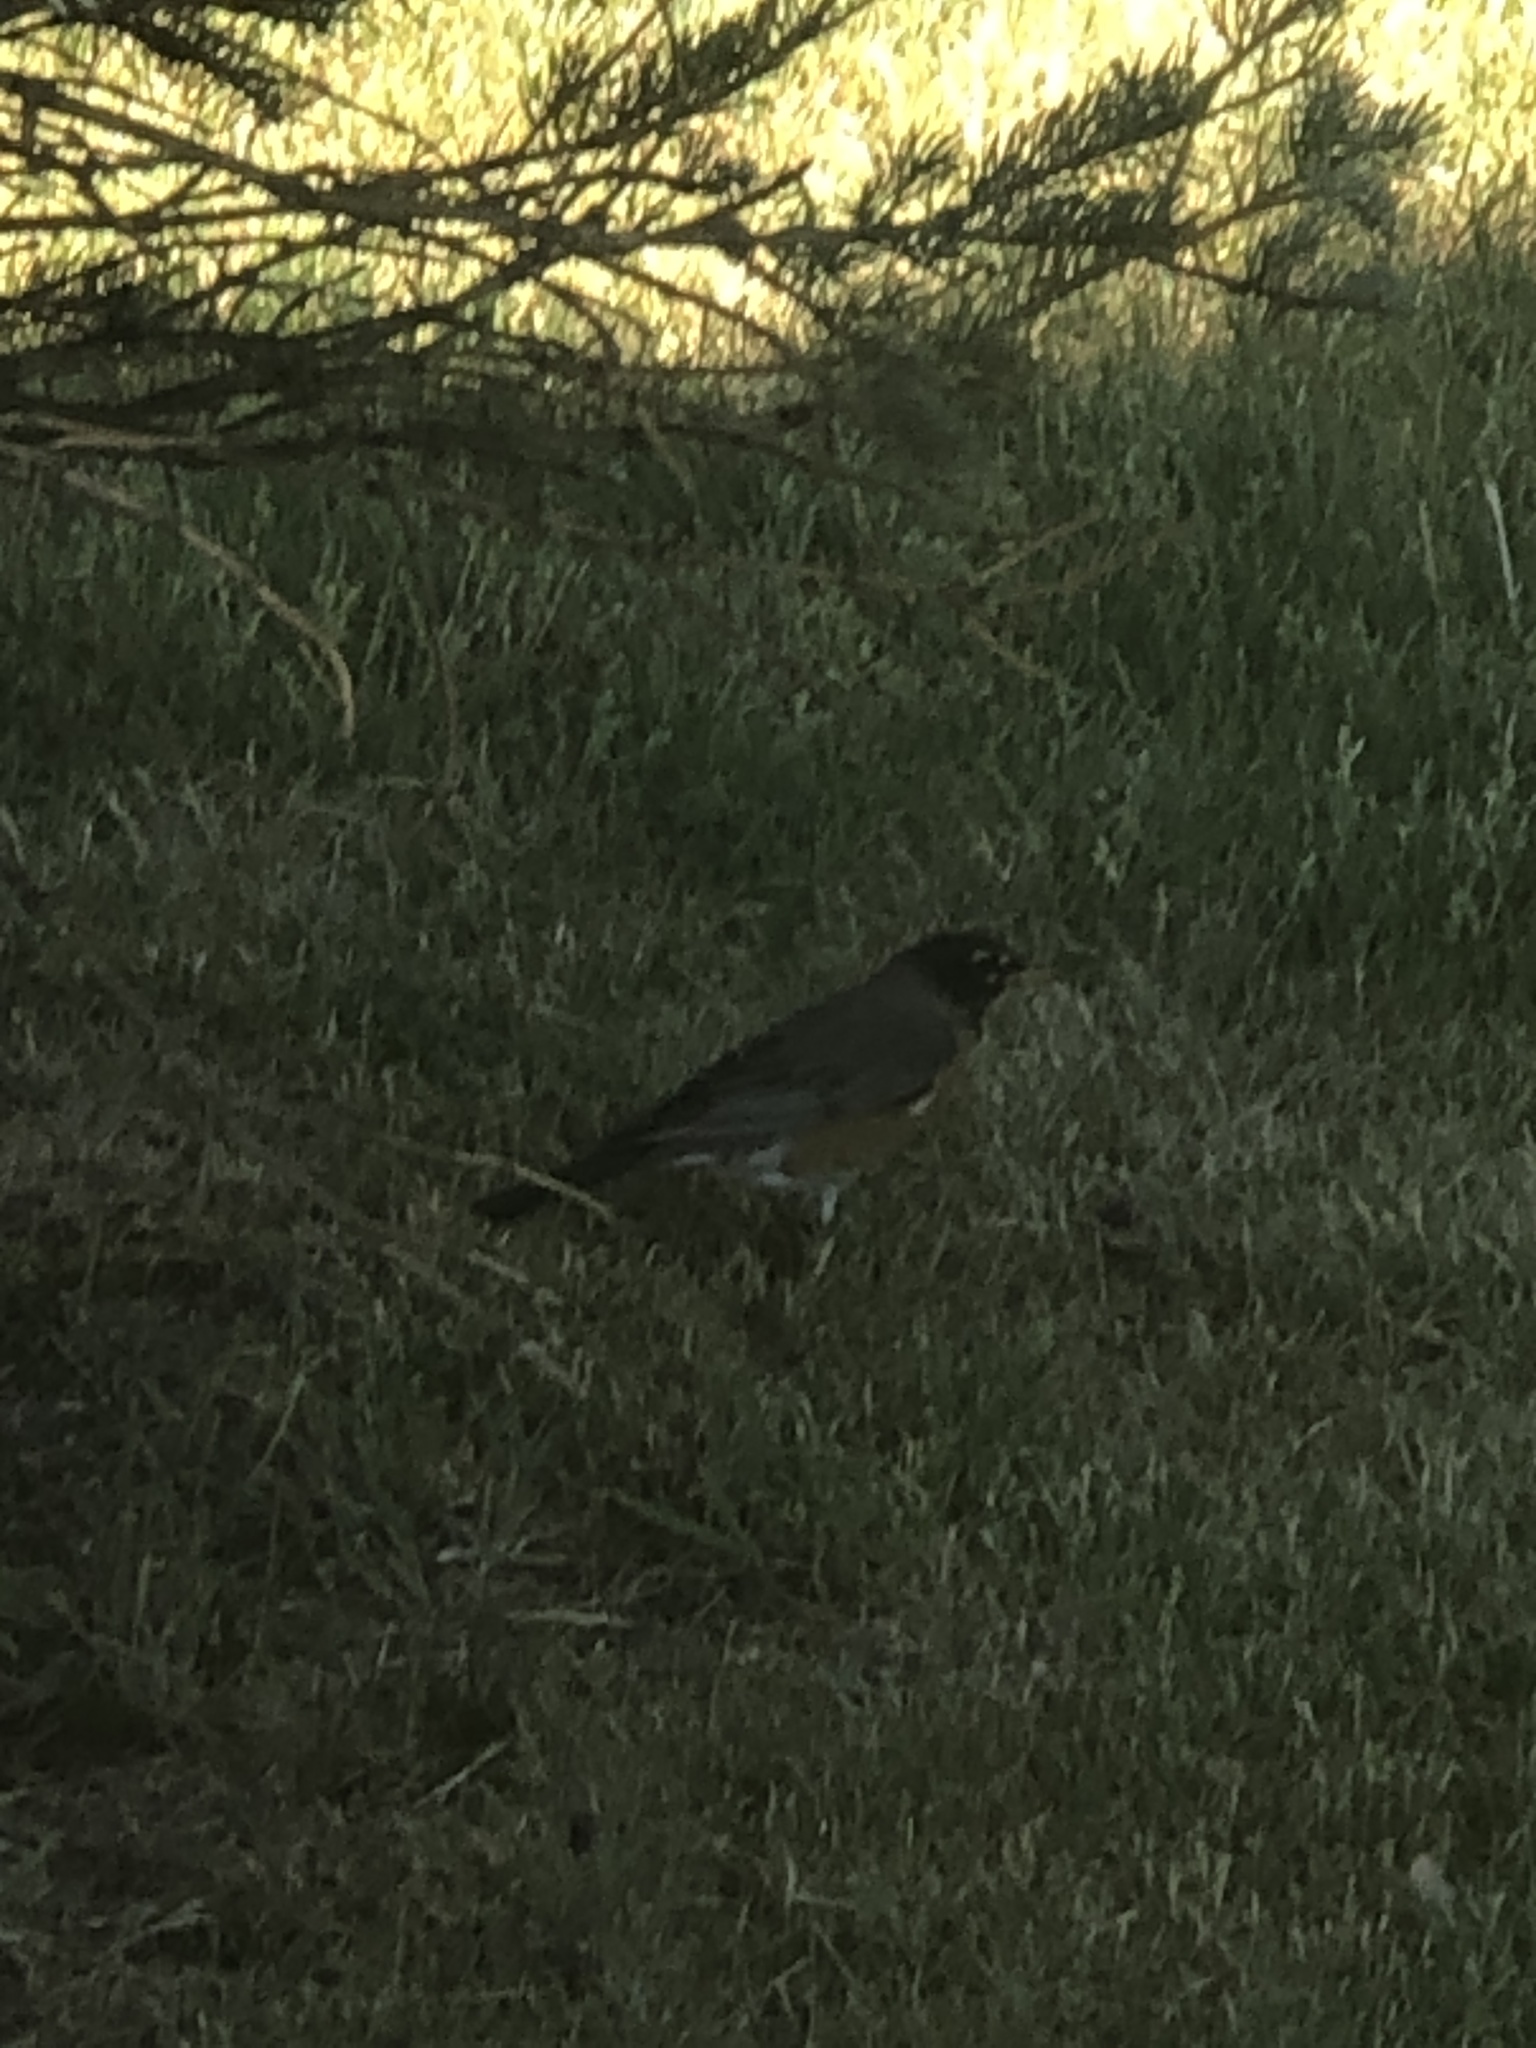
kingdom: Animalia
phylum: Chordata
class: Aves
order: Passeriformes
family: Turdidae
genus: Turdus
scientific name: Turdus migratorius
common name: American robin
